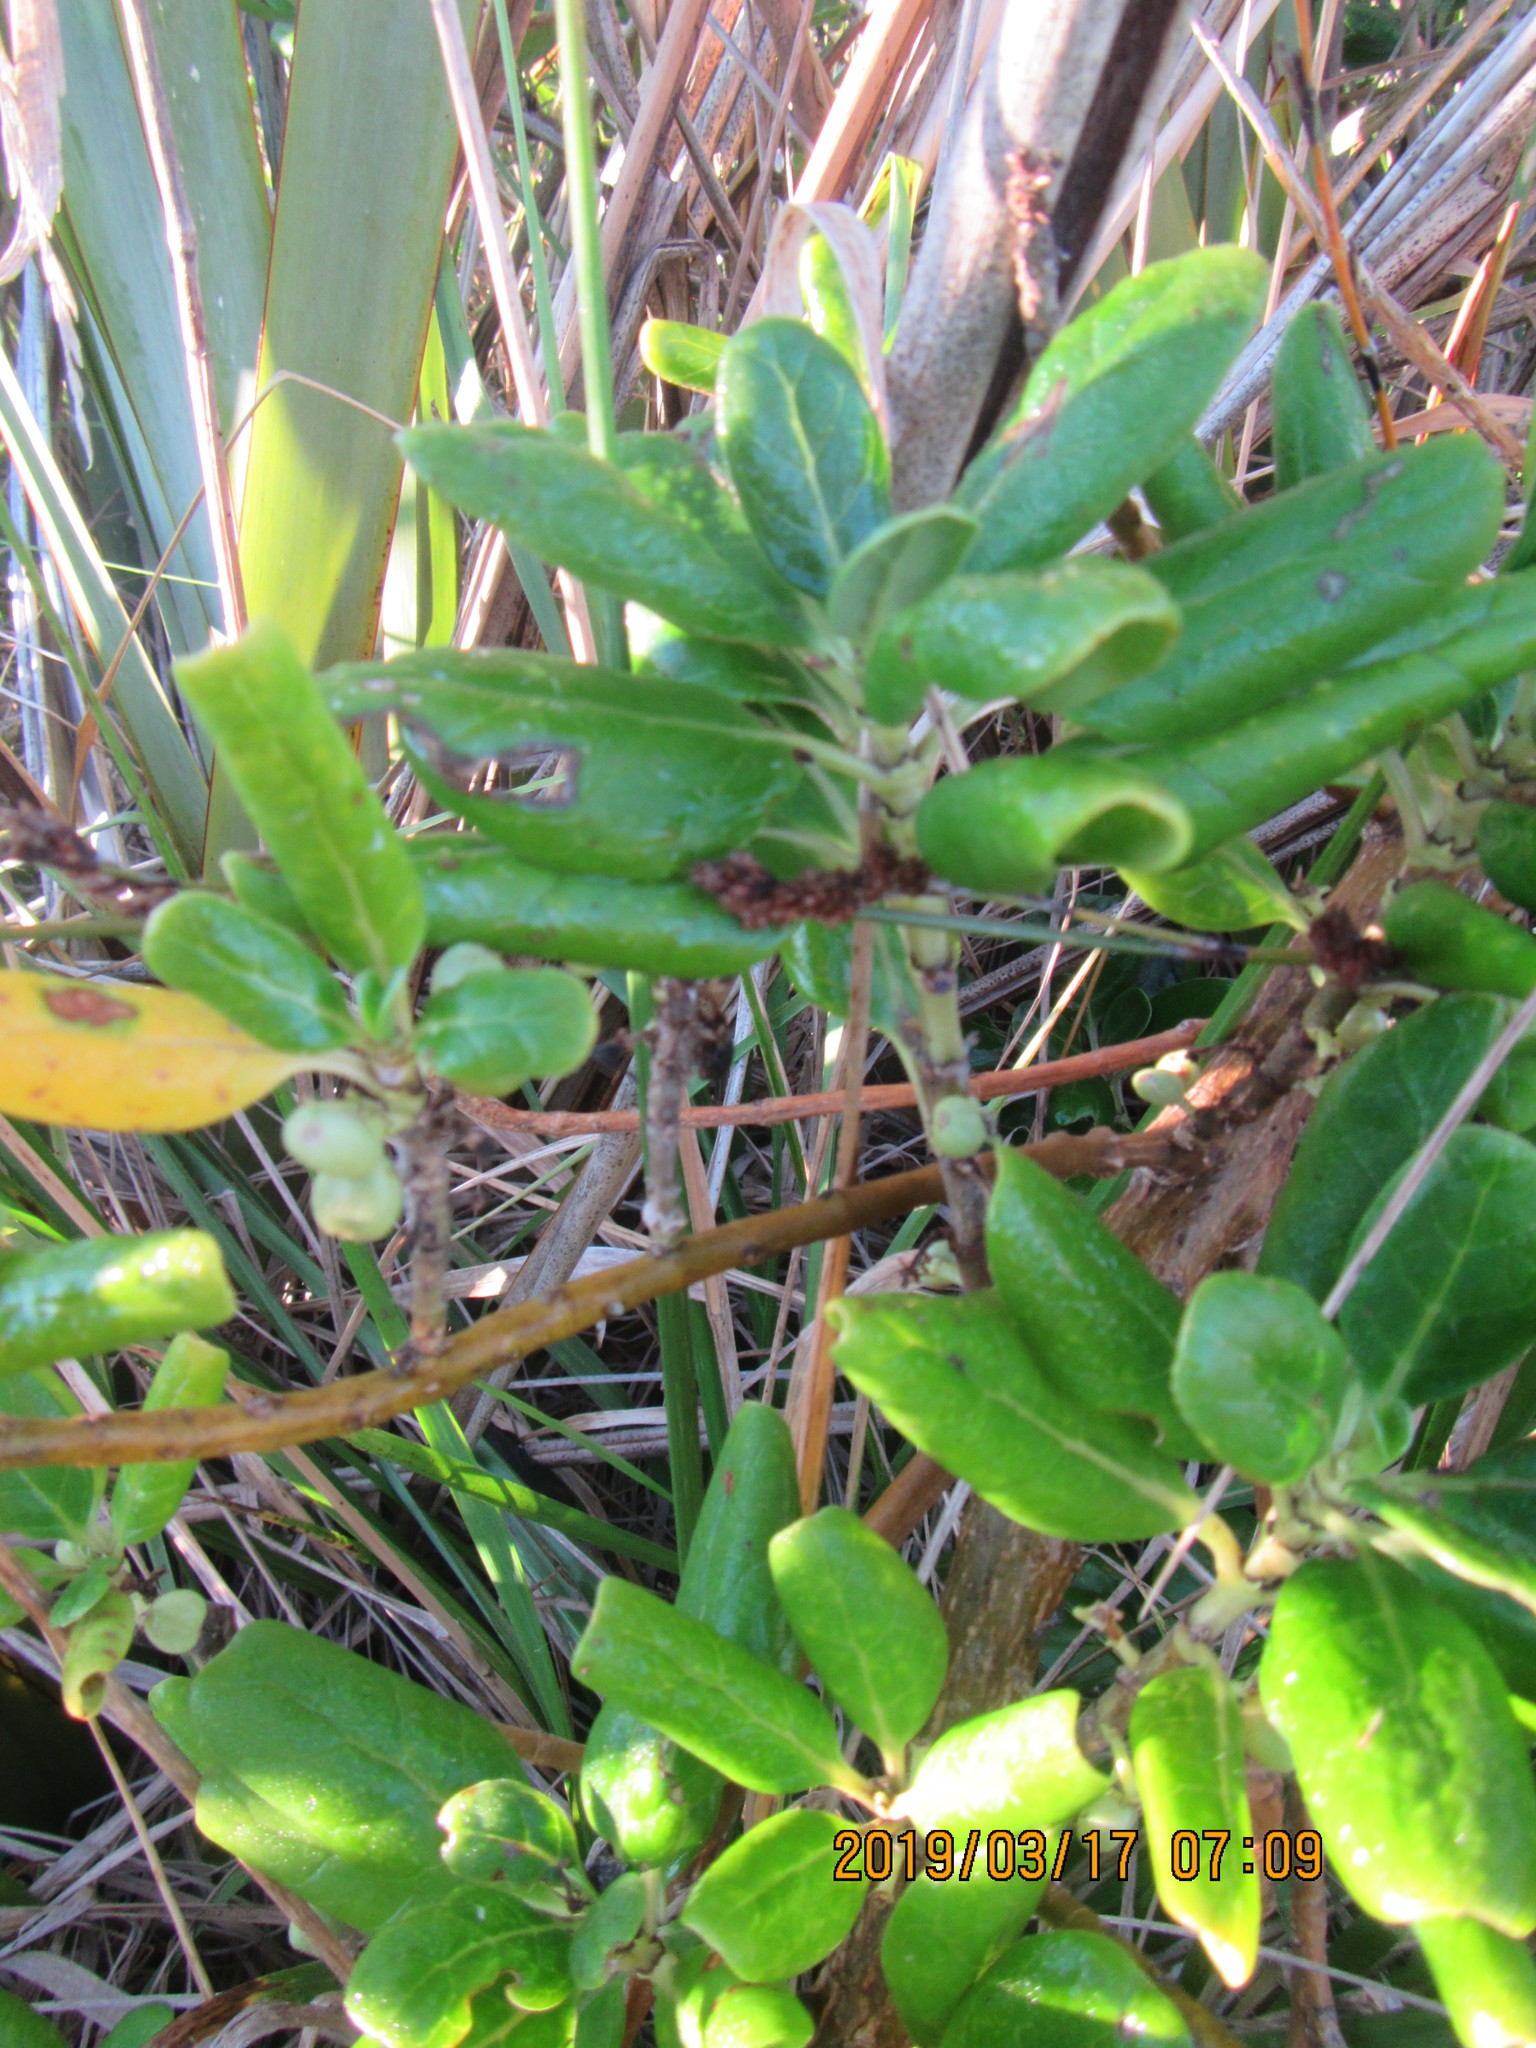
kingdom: Plantae
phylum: Tracheophyta
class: Magnoliopsida
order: Gentianales
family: Rubiaceae
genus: Coprosma
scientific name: Coprosma repens
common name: Tree bedstraw
